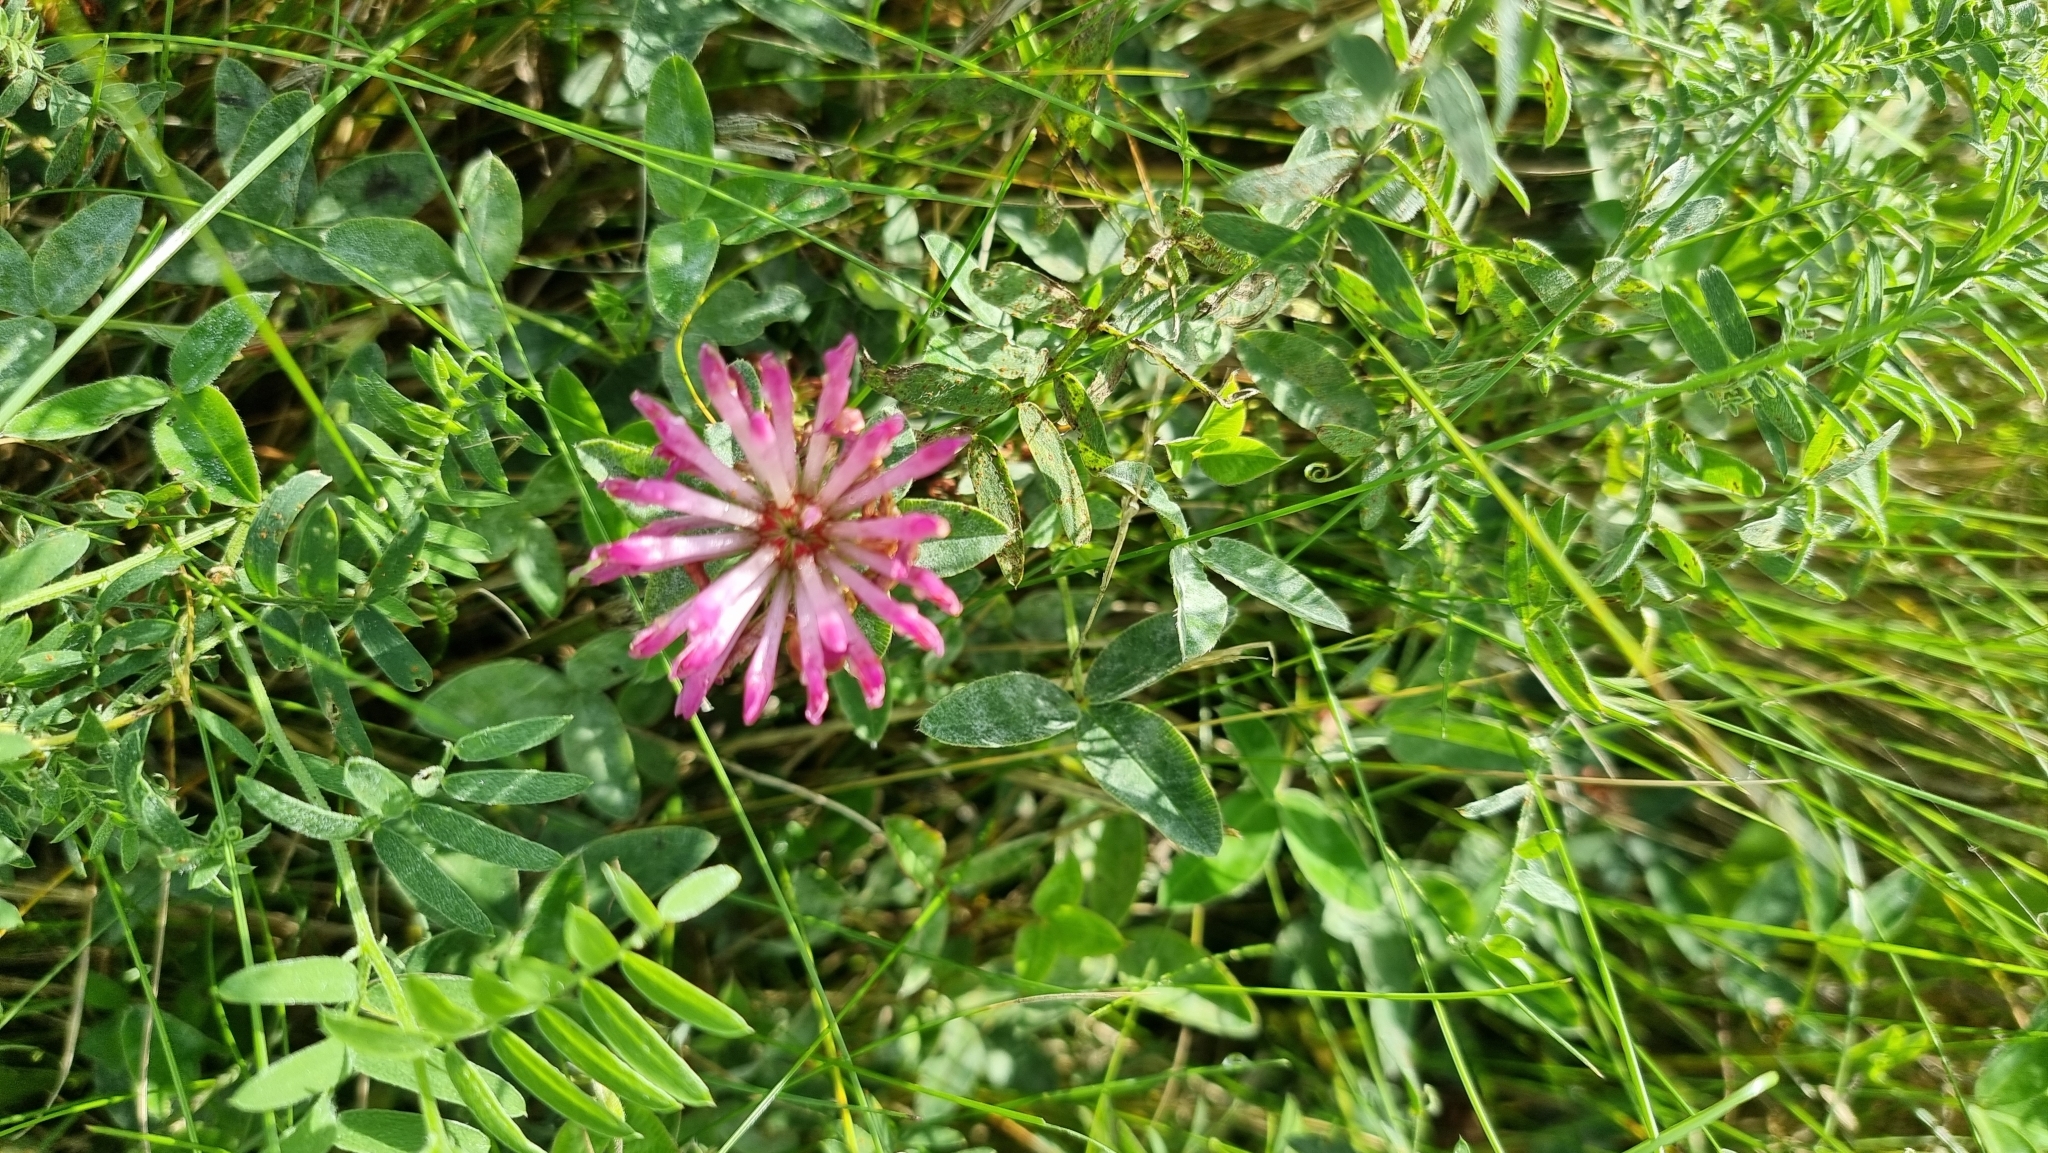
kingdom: Plantae
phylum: Tracheophyta
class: Magnoliopsida
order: Fabales
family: Fabaceae
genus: Trifolium
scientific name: Trifolium medium
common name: Zigzag clover
